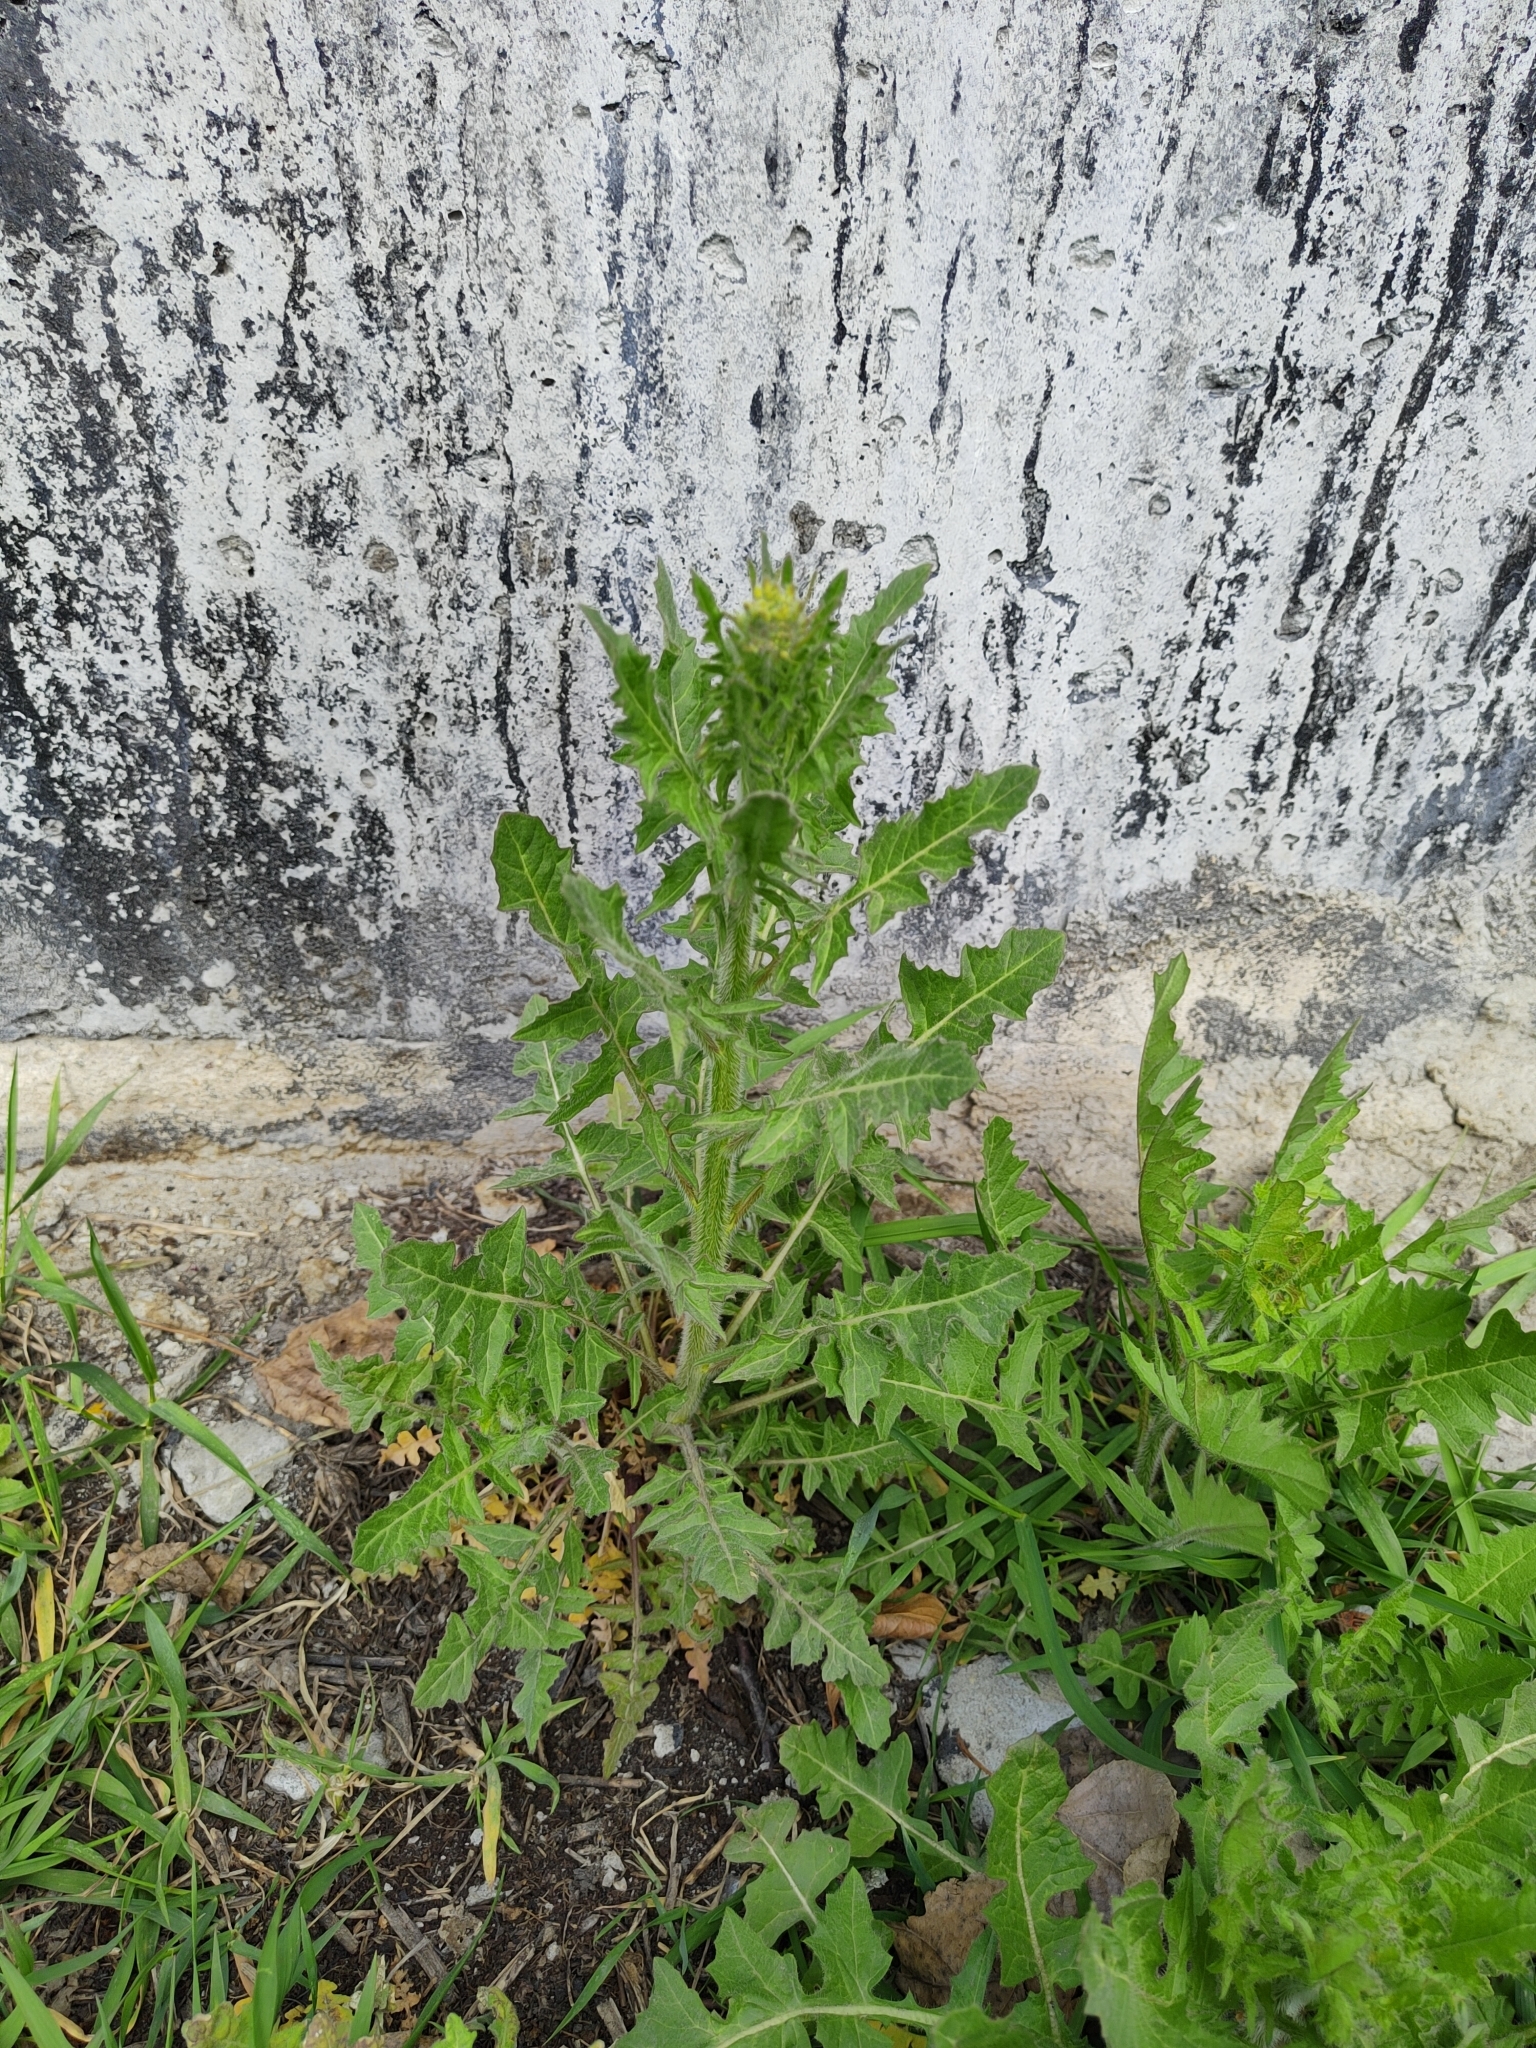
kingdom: Plantae
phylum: Tracheophyta
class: Magnoliopsida
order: Brassicales
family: Brassicaceae
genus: Sisymbrium
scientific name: Sisymbrium loeselii
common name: False london-rocket
